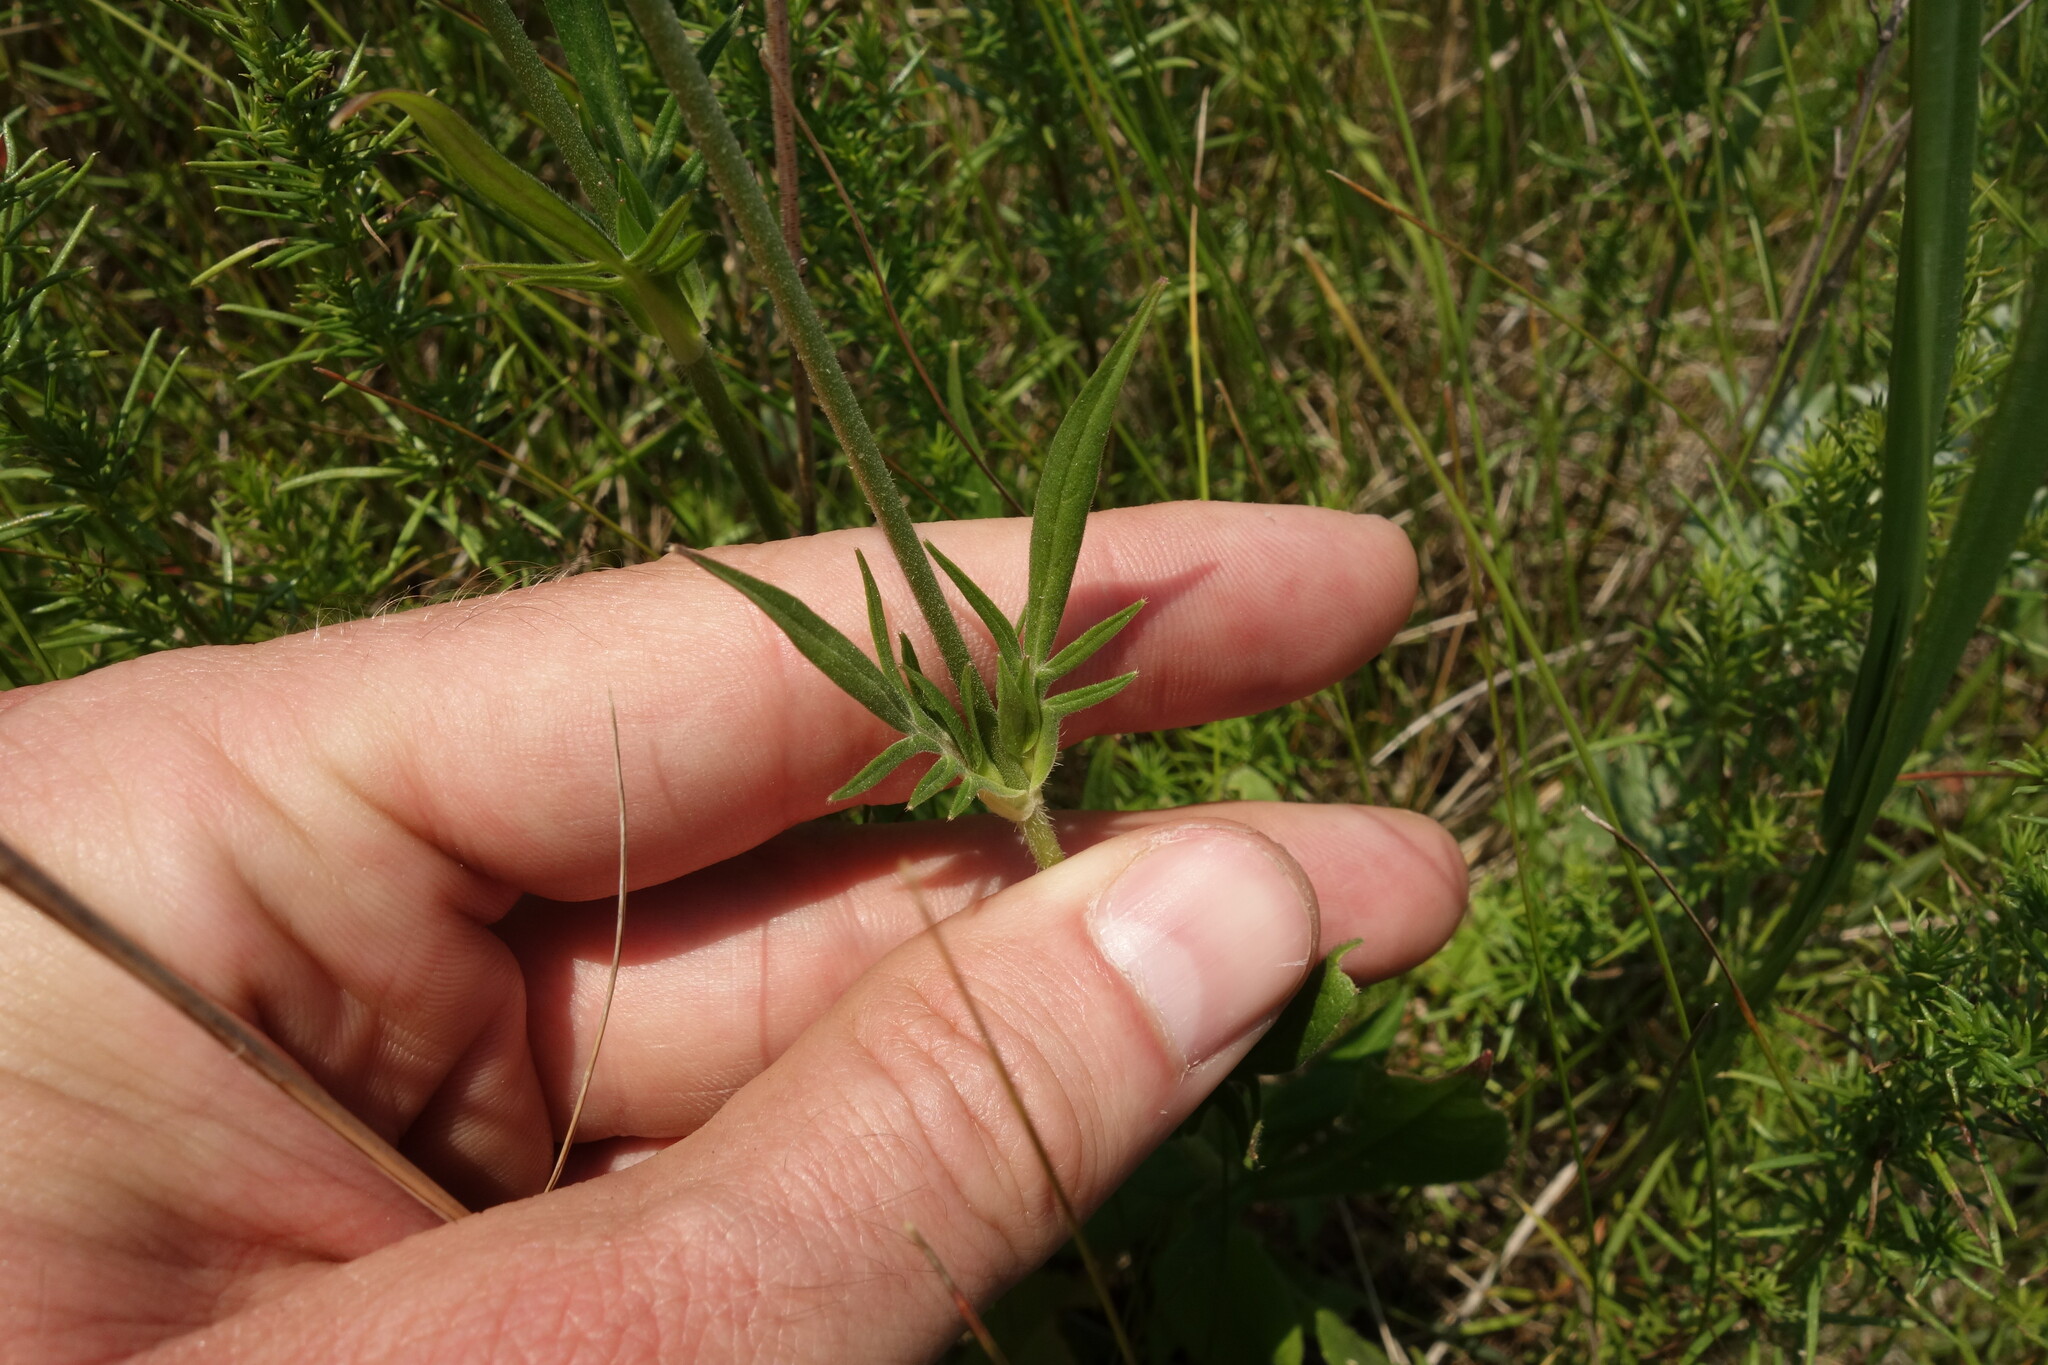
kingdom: Plantae
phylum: Tracheophyta
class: Magnoliopsida
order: Dipsacales
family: Caprifoliaceae
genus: Knautia
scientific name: Knautia arvensis
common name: Field scabiosa
